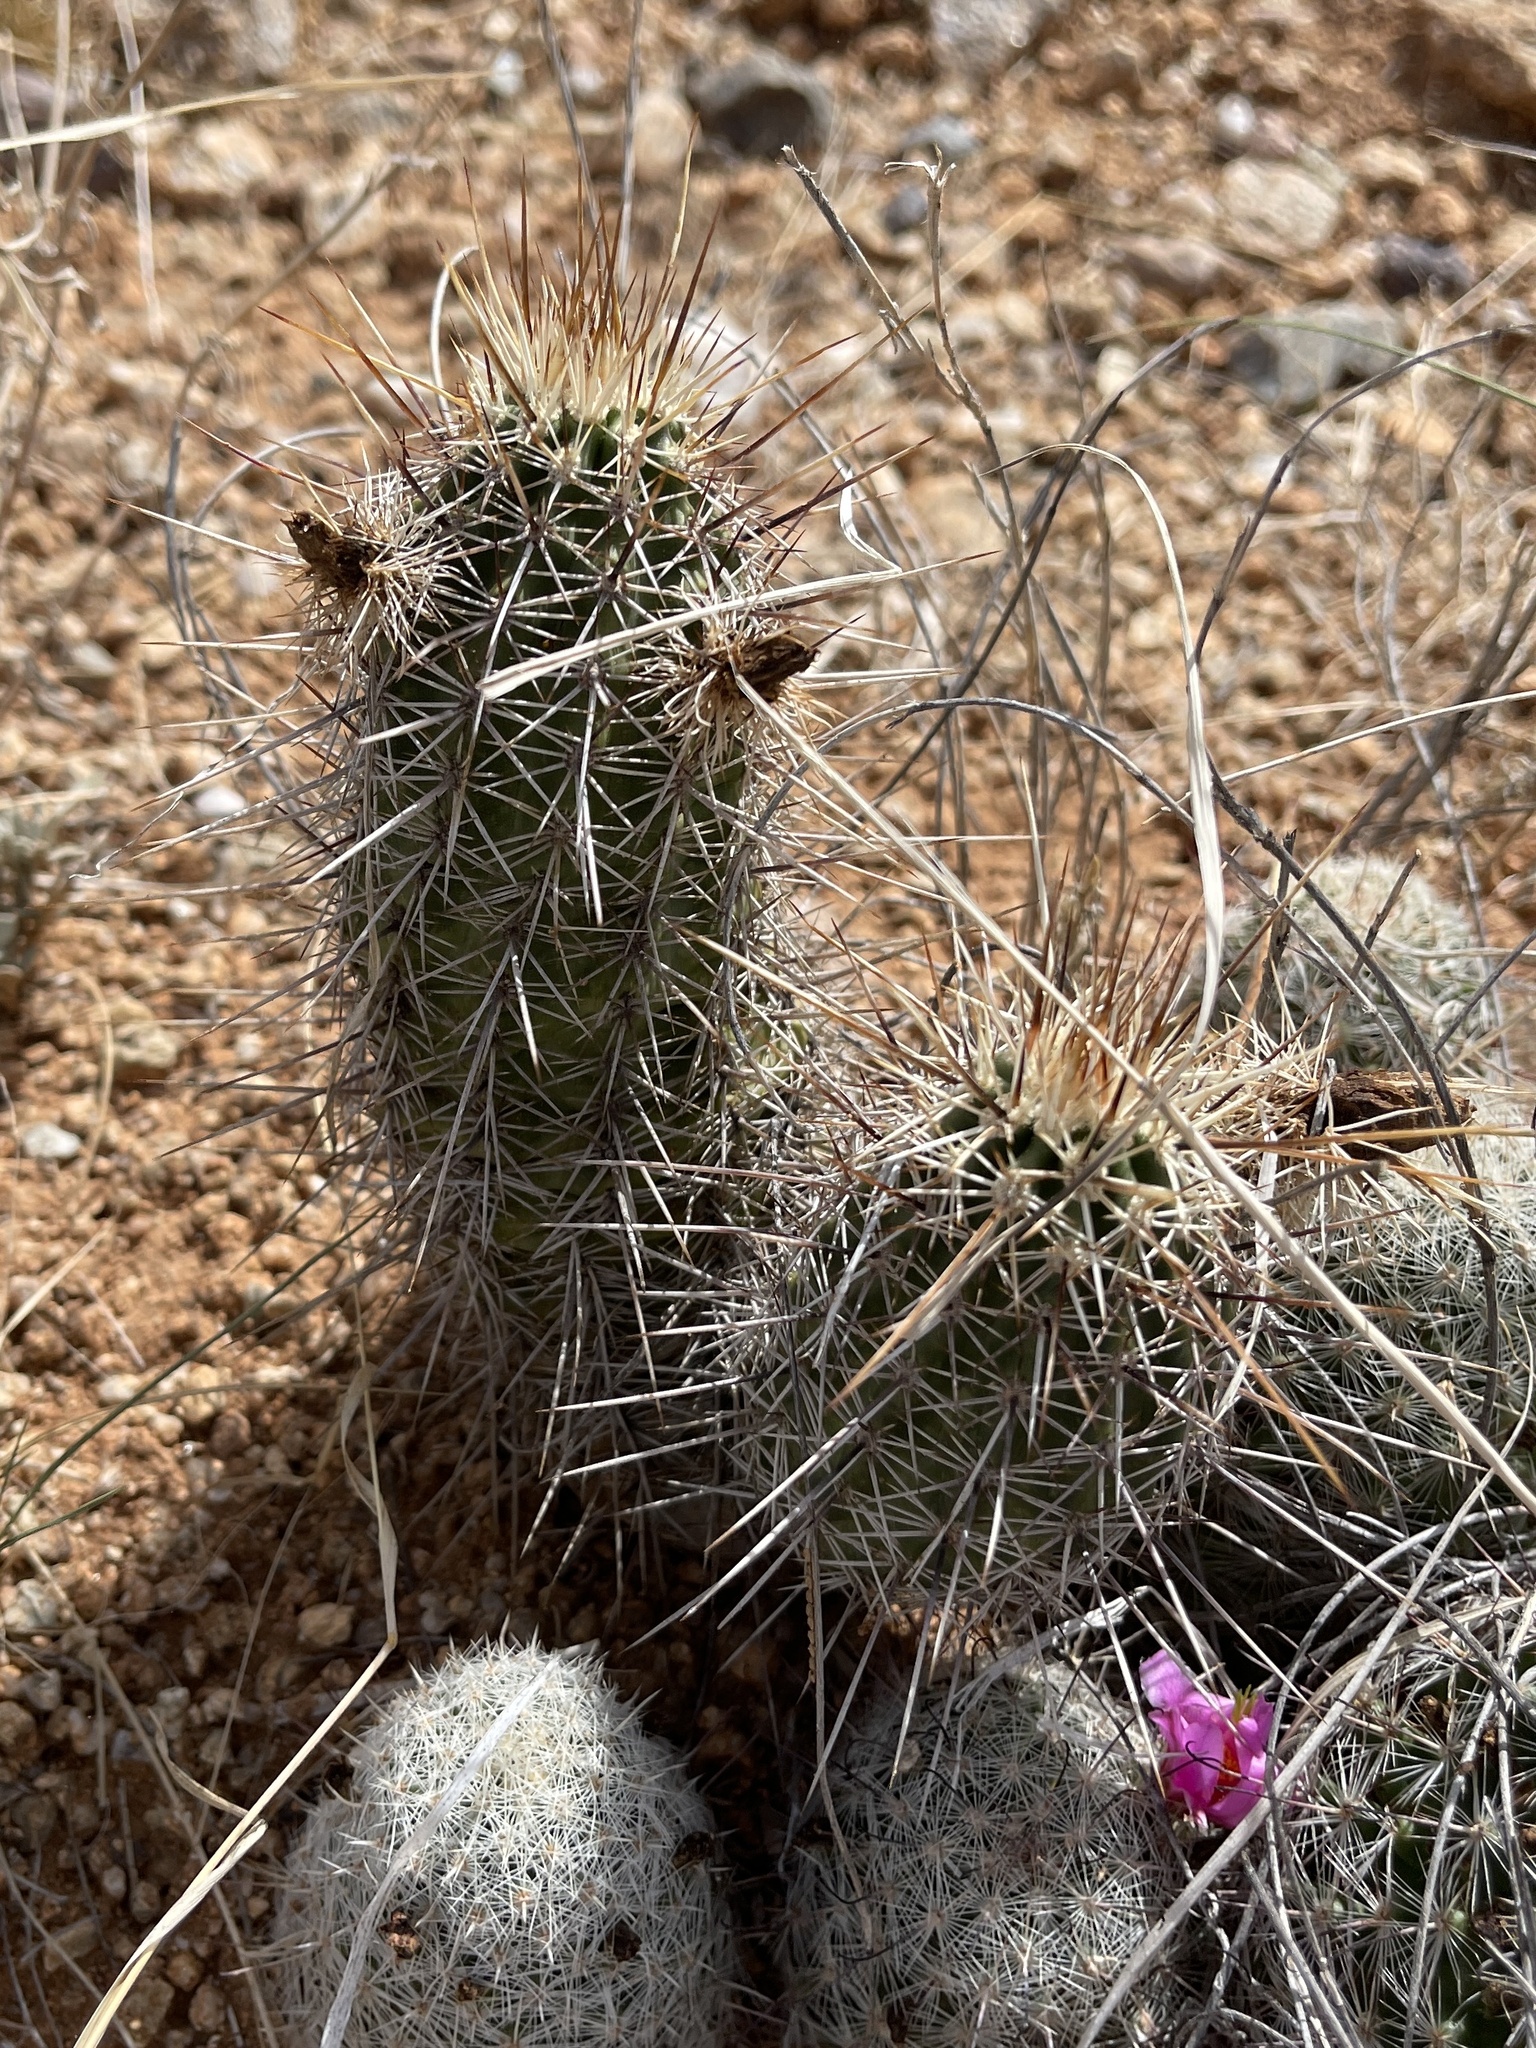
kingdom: Plantae
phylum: Tracheophyta
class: Magnoliopsida
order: Caryophyllales
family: Cactaceae
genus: Echinocereus
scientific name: Echinocereus fasciculatus
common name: Bundle hedgehog
